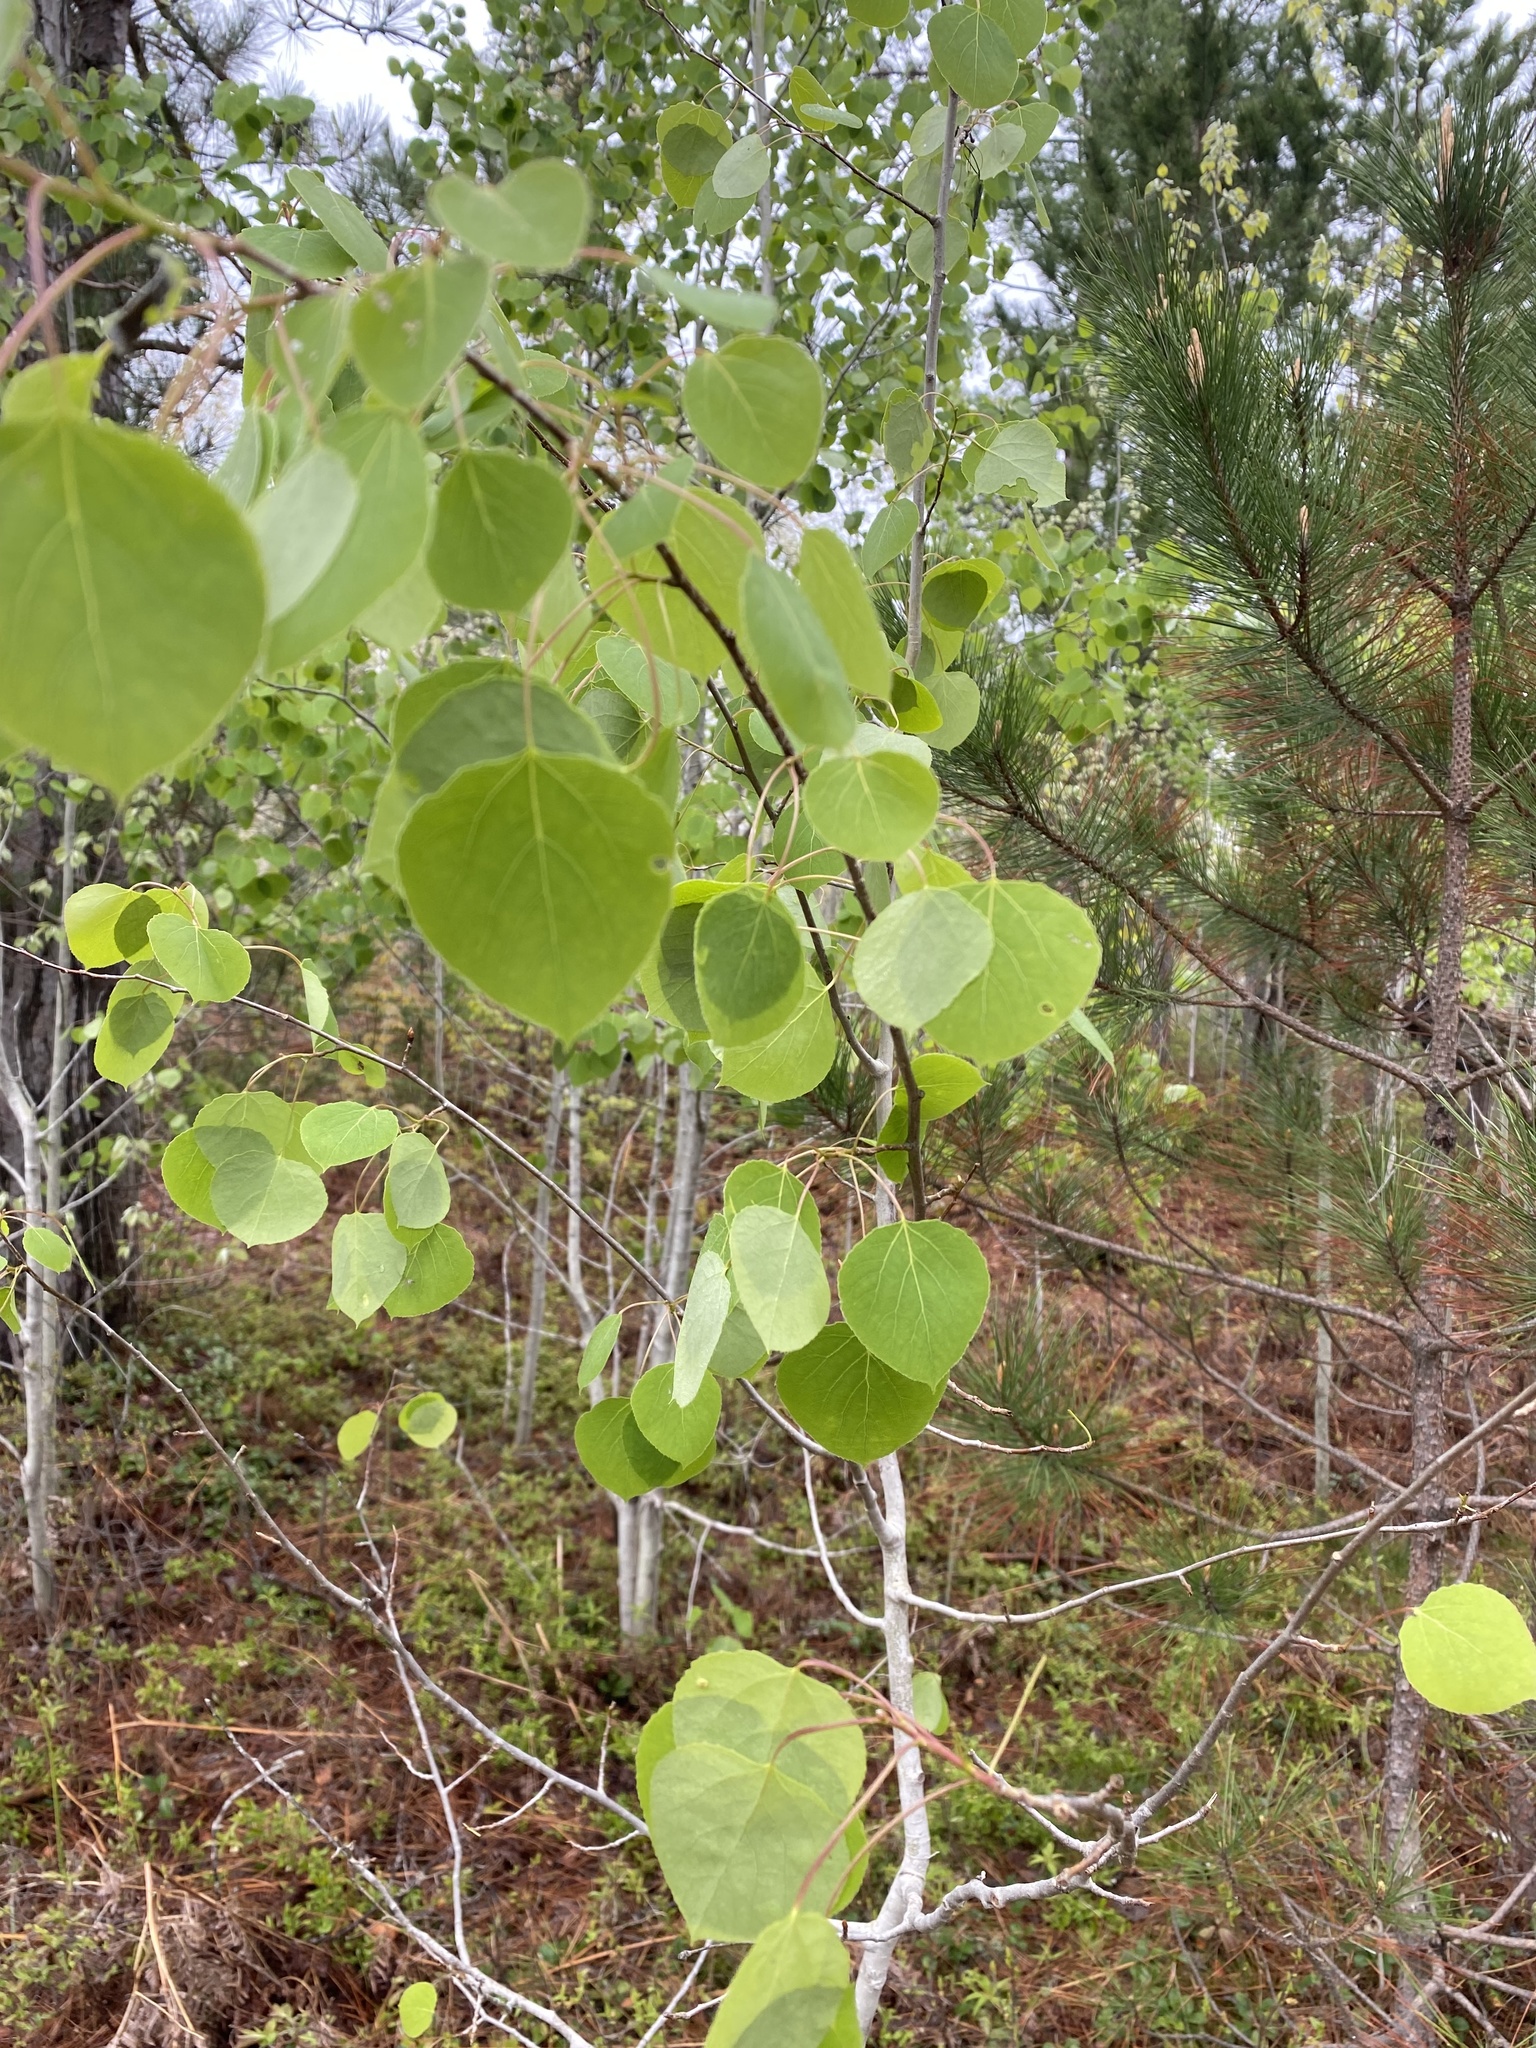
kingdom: Plantae
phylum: Tracheophyta
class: Magnoliopsida
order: Malpighiales
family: Salicaceae
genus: Populus
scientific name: Populus tremuloides
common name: Quaking aspen
